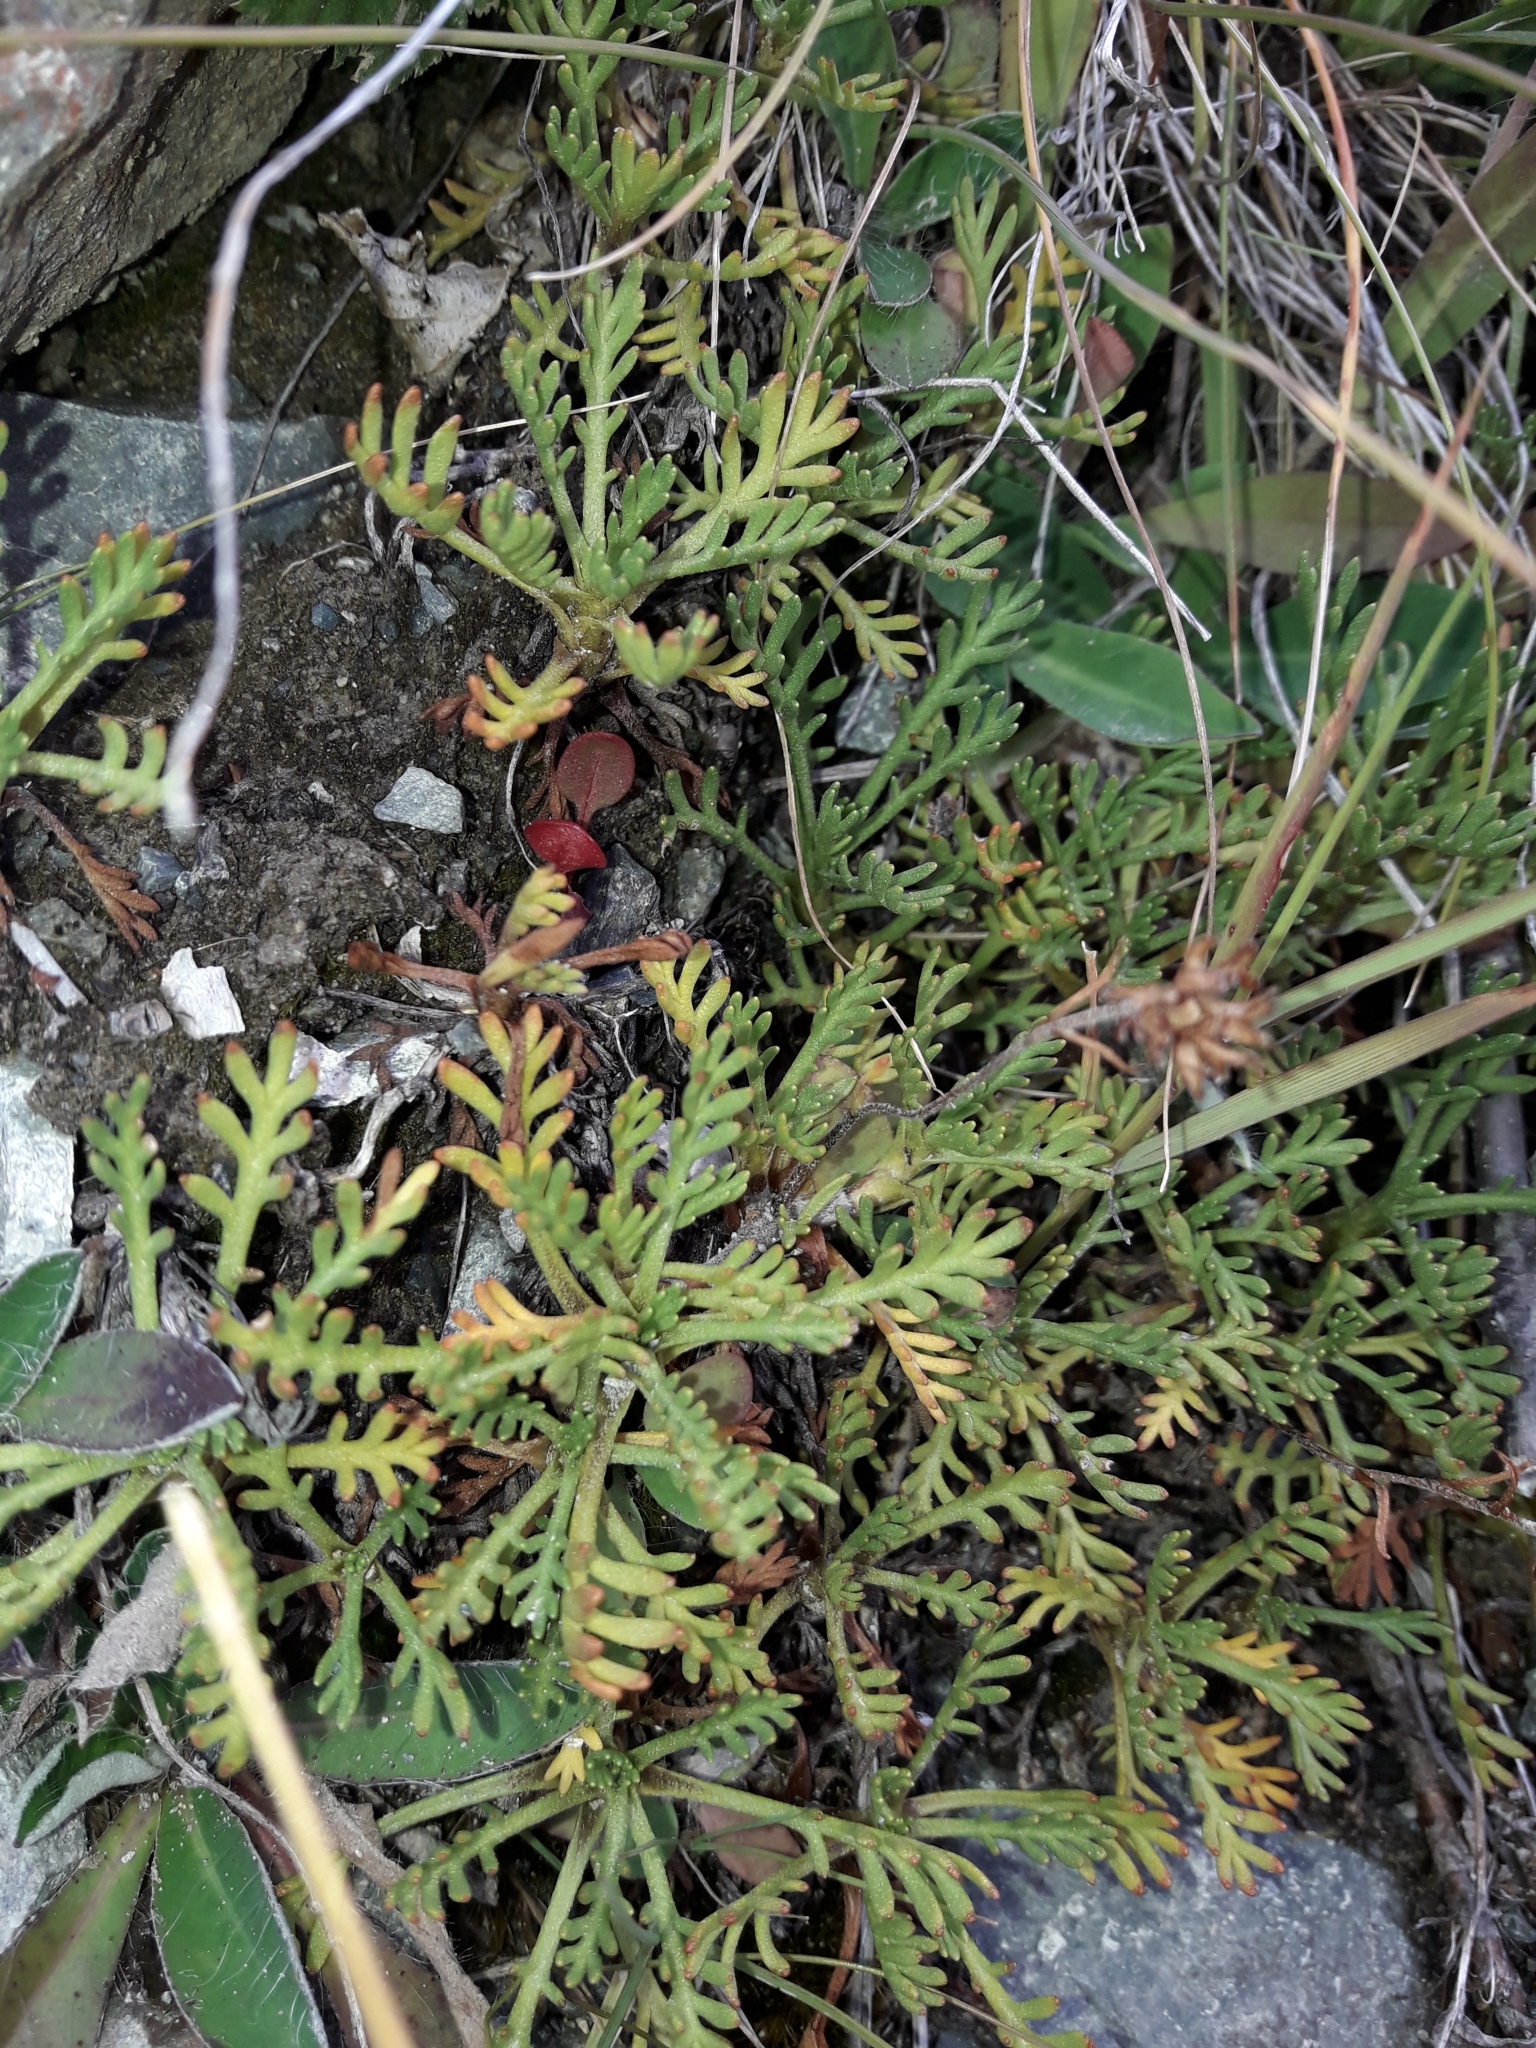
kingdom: Plantae
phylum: Tracheophyta
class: Magnoliopsida
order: Asterales
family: Asteraceae
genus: Leptinella
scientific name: Leptinella pyrethrifolia
